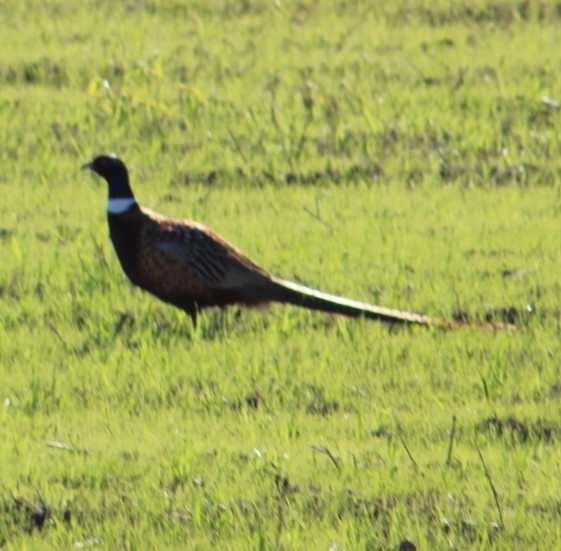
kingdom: Animalia
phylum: Chordata
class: Aves
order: Galliformes
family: Phasianidae
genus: Phasianus
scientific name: Phasianus colchicus
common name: Common pheasant
